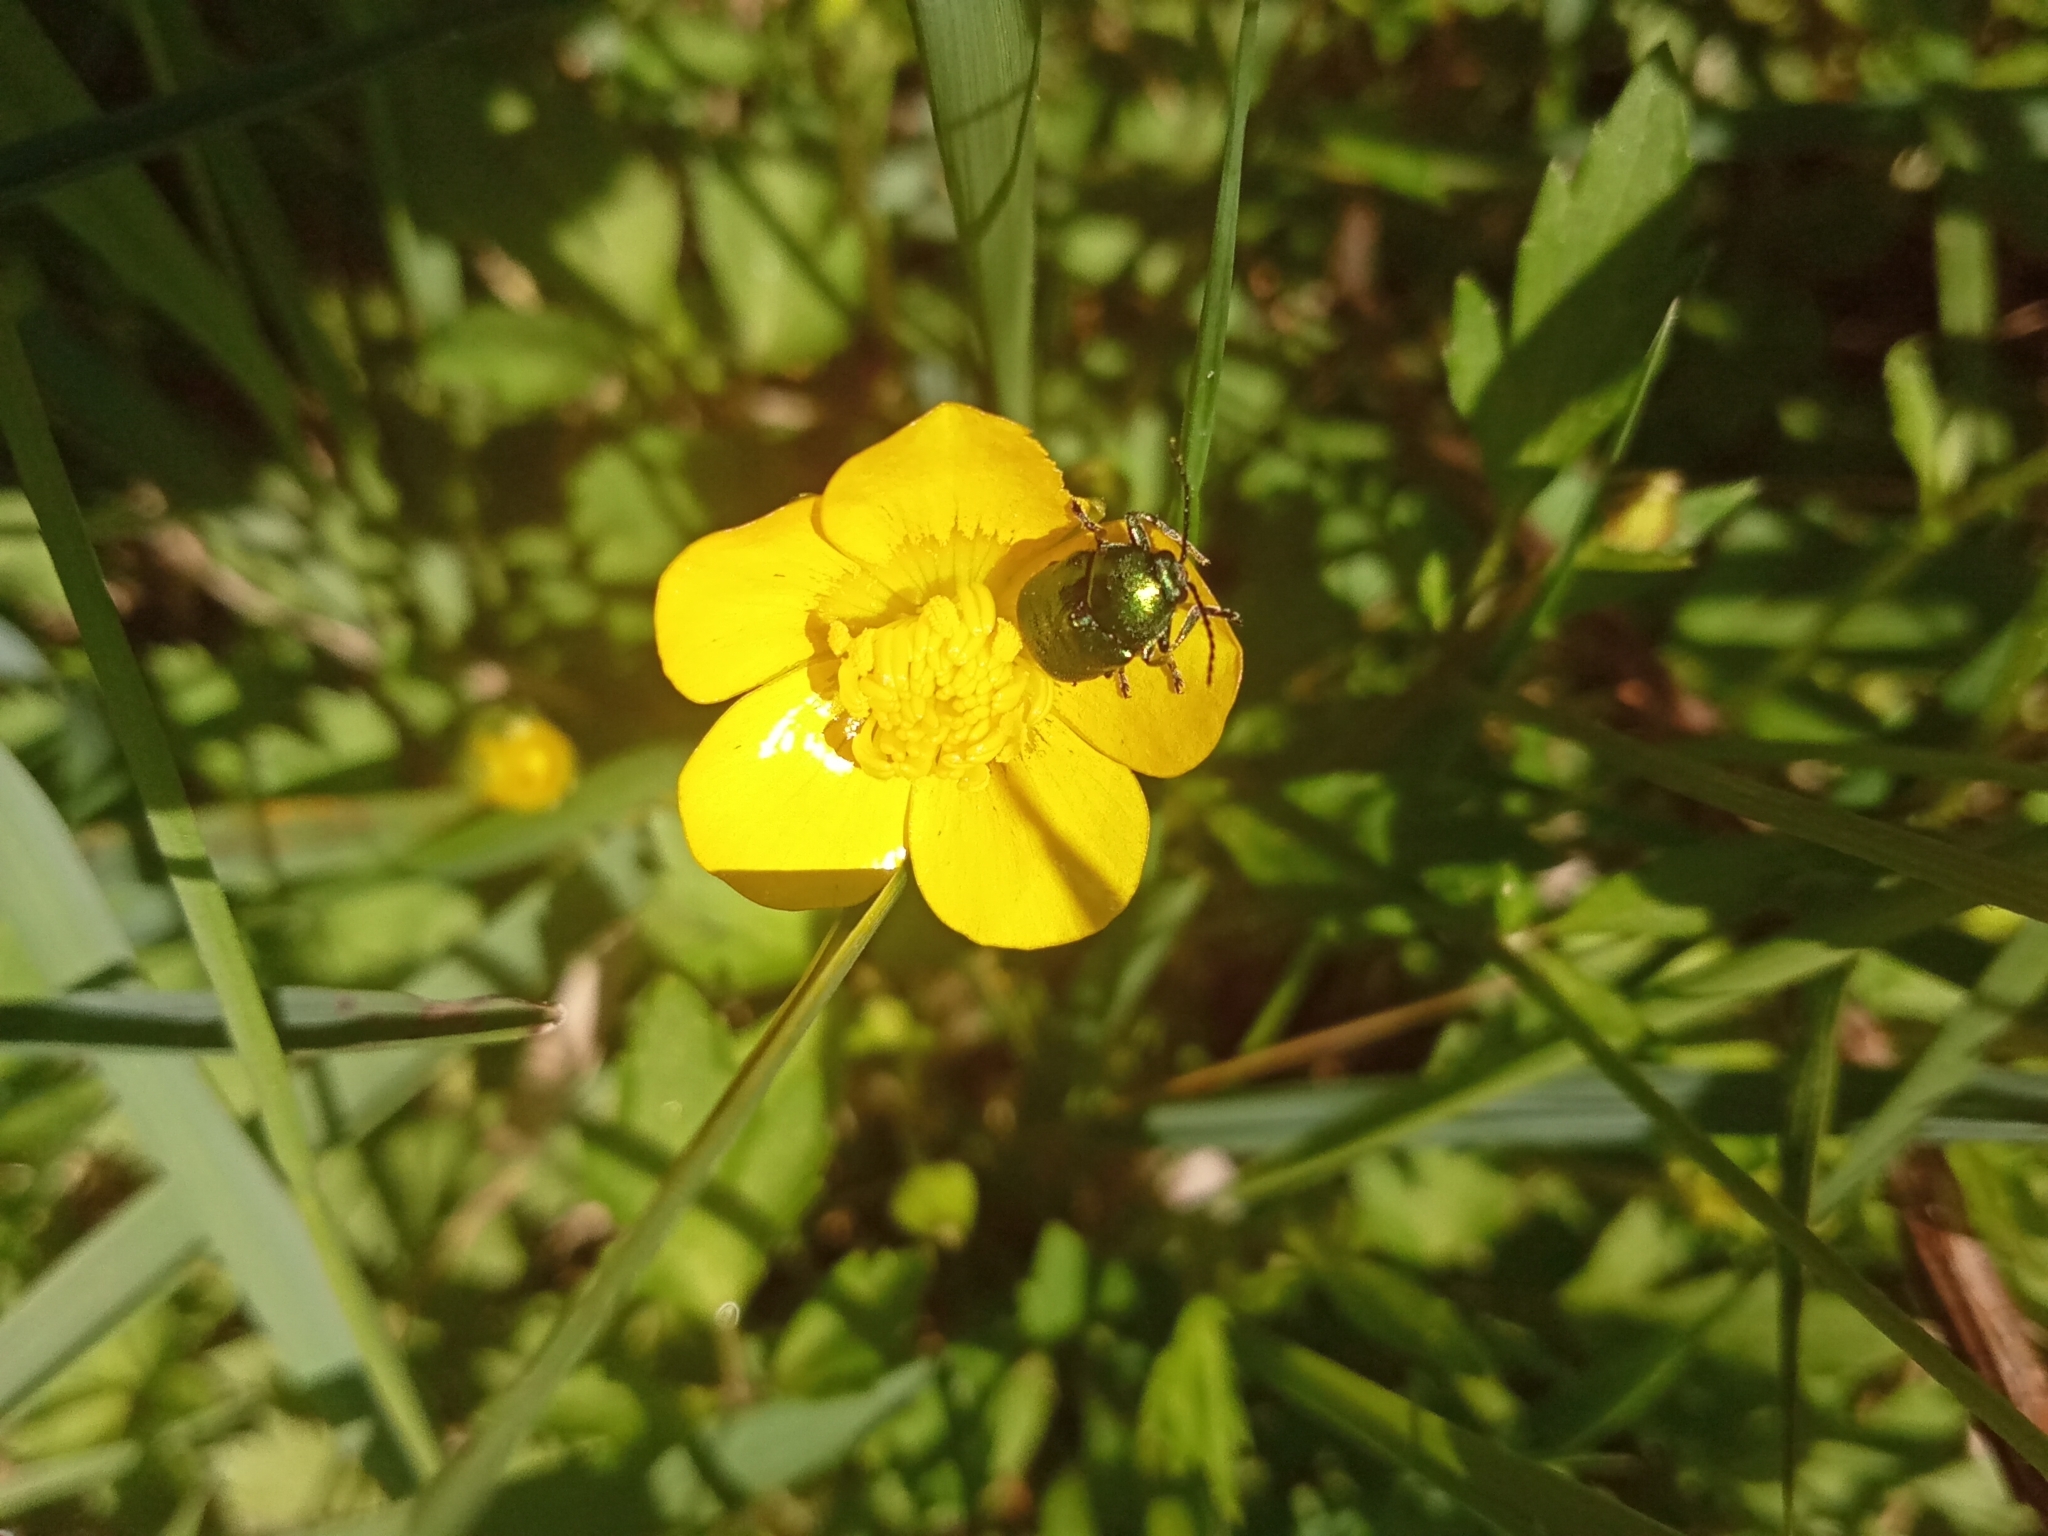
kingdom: Animalia
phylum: Arthropoda
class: Insecta
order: Coleoptera
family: Chrysomelidae
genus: Cryptocephalus
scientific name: Cryptocephalus
